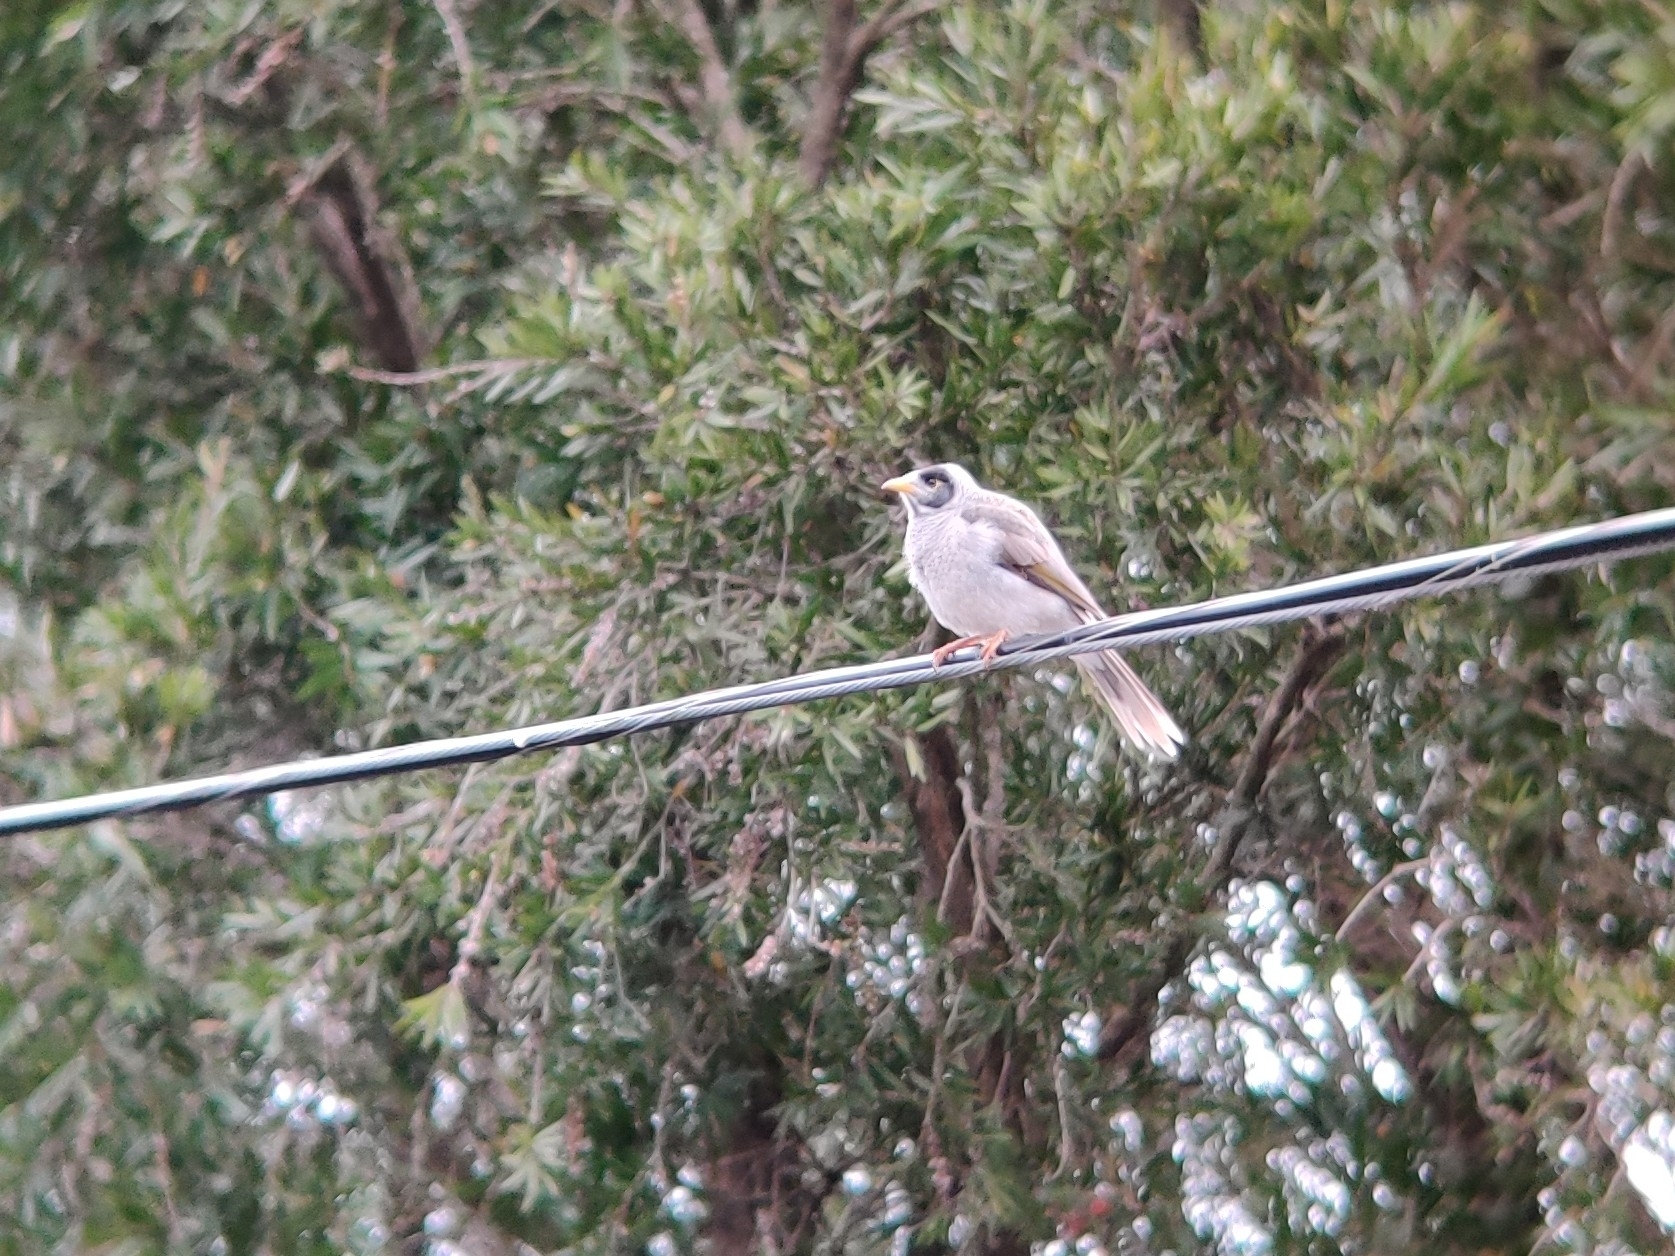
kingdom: Animalia
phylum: Chordata
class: Aves
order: Passeriformes
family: Meliphagidae
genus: Manorina
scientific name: Manorina melanocephala
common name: Noisy miner
